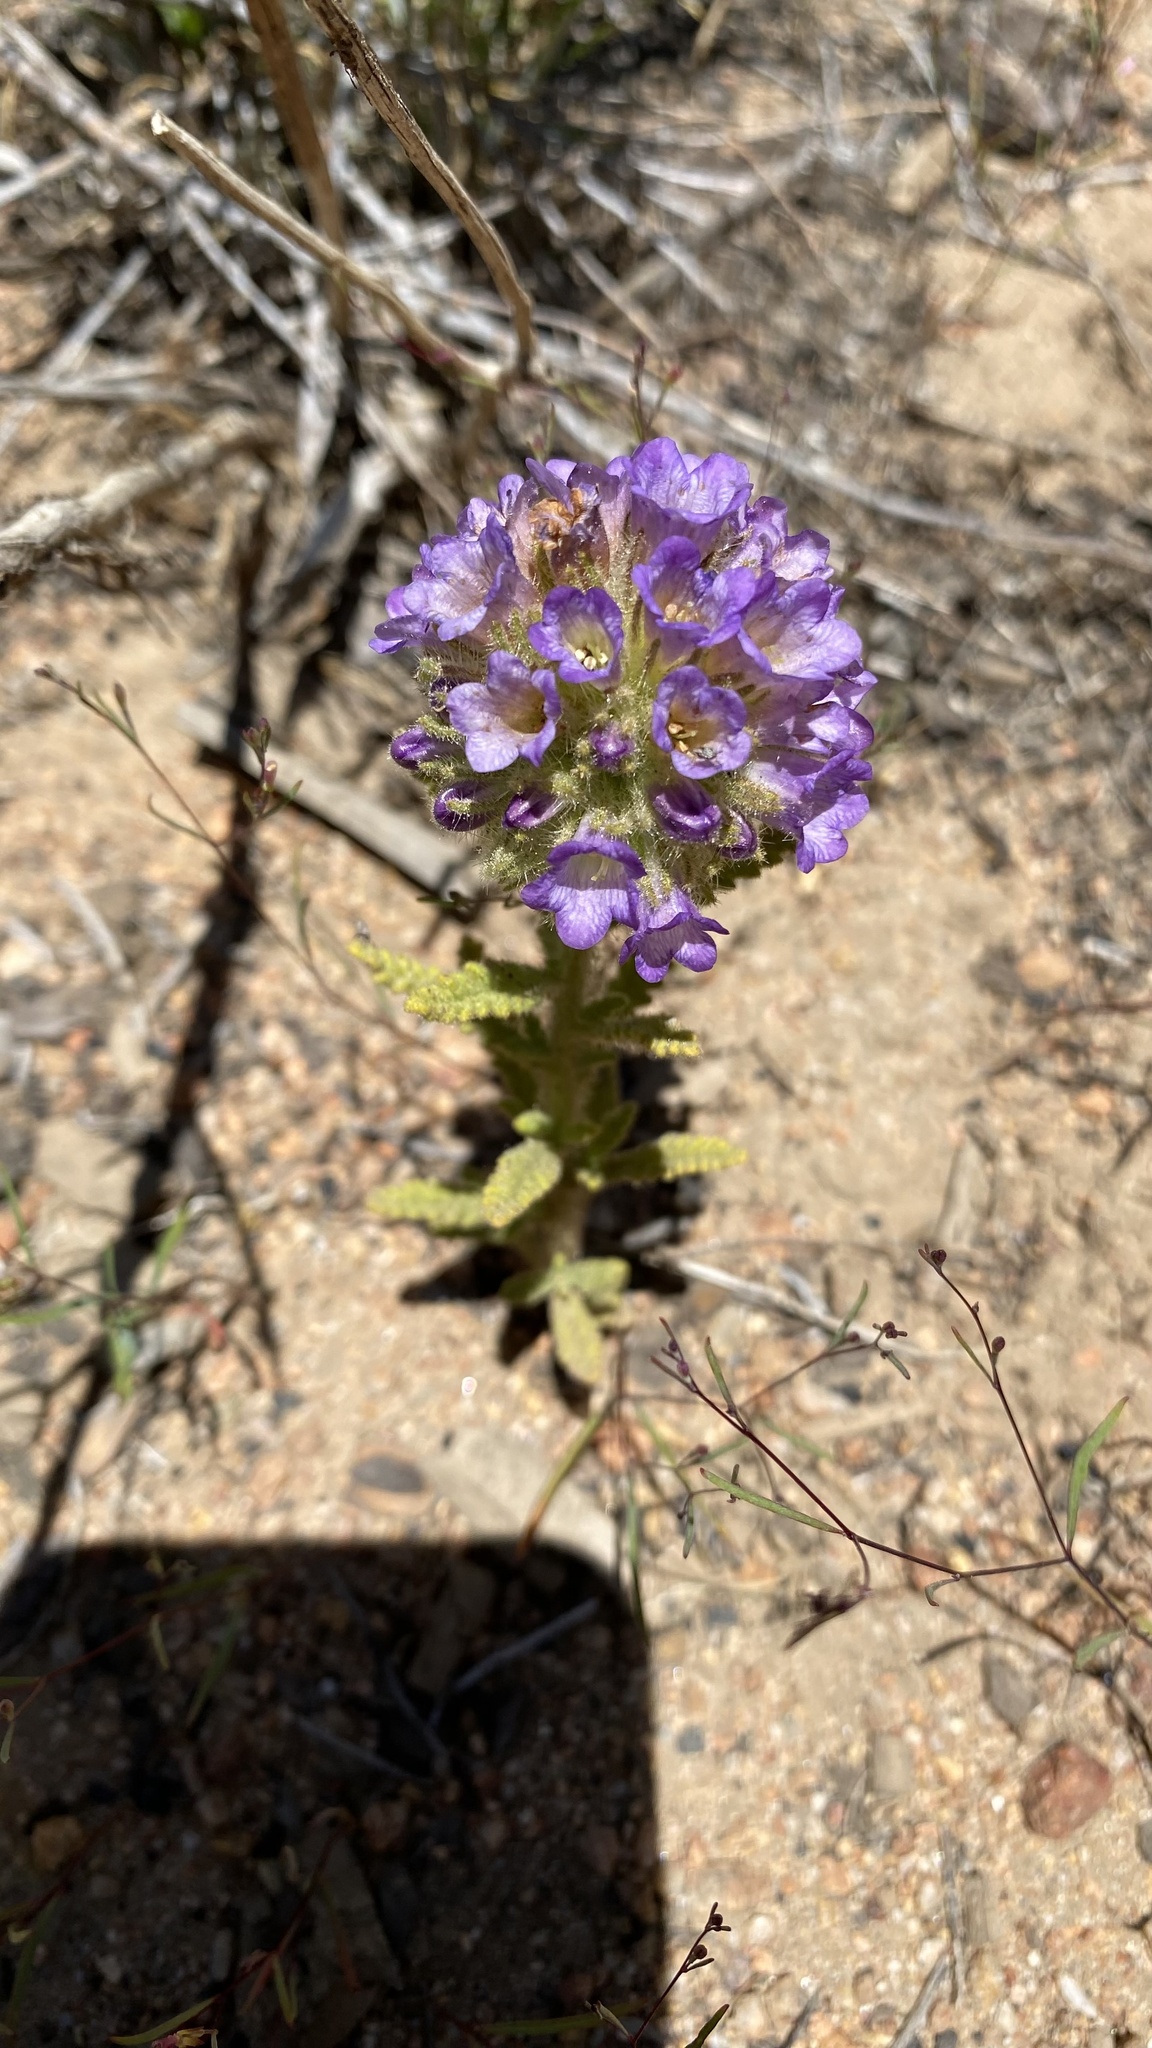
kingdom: Plantae
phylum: Tracheophyta
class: Magnoliopsida
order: Boraginales
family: Namaceae
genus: Nama
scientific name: Nama rothrockii
